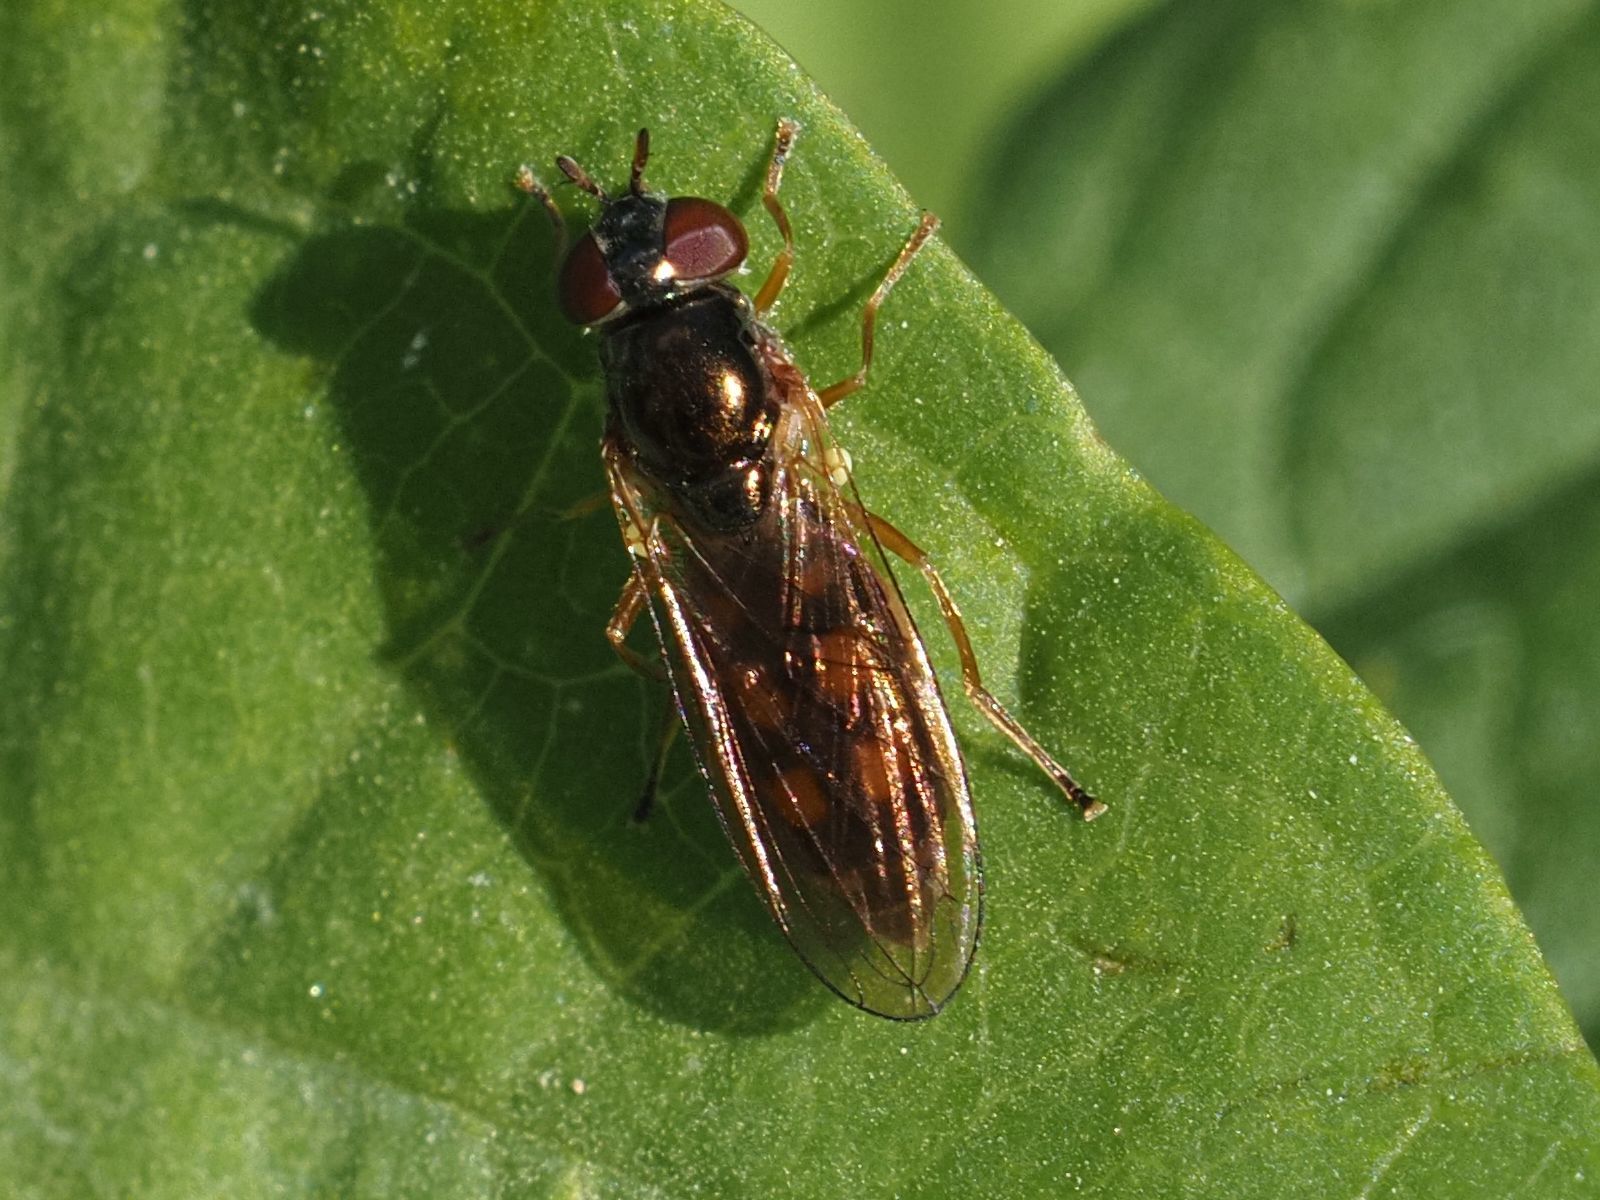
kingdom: Animalia
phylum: Arthropoda
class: Insecta
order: Diptera
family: Syrphidae
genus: Melanostoma
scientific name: Melanostoma mellina
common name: Hover fly
